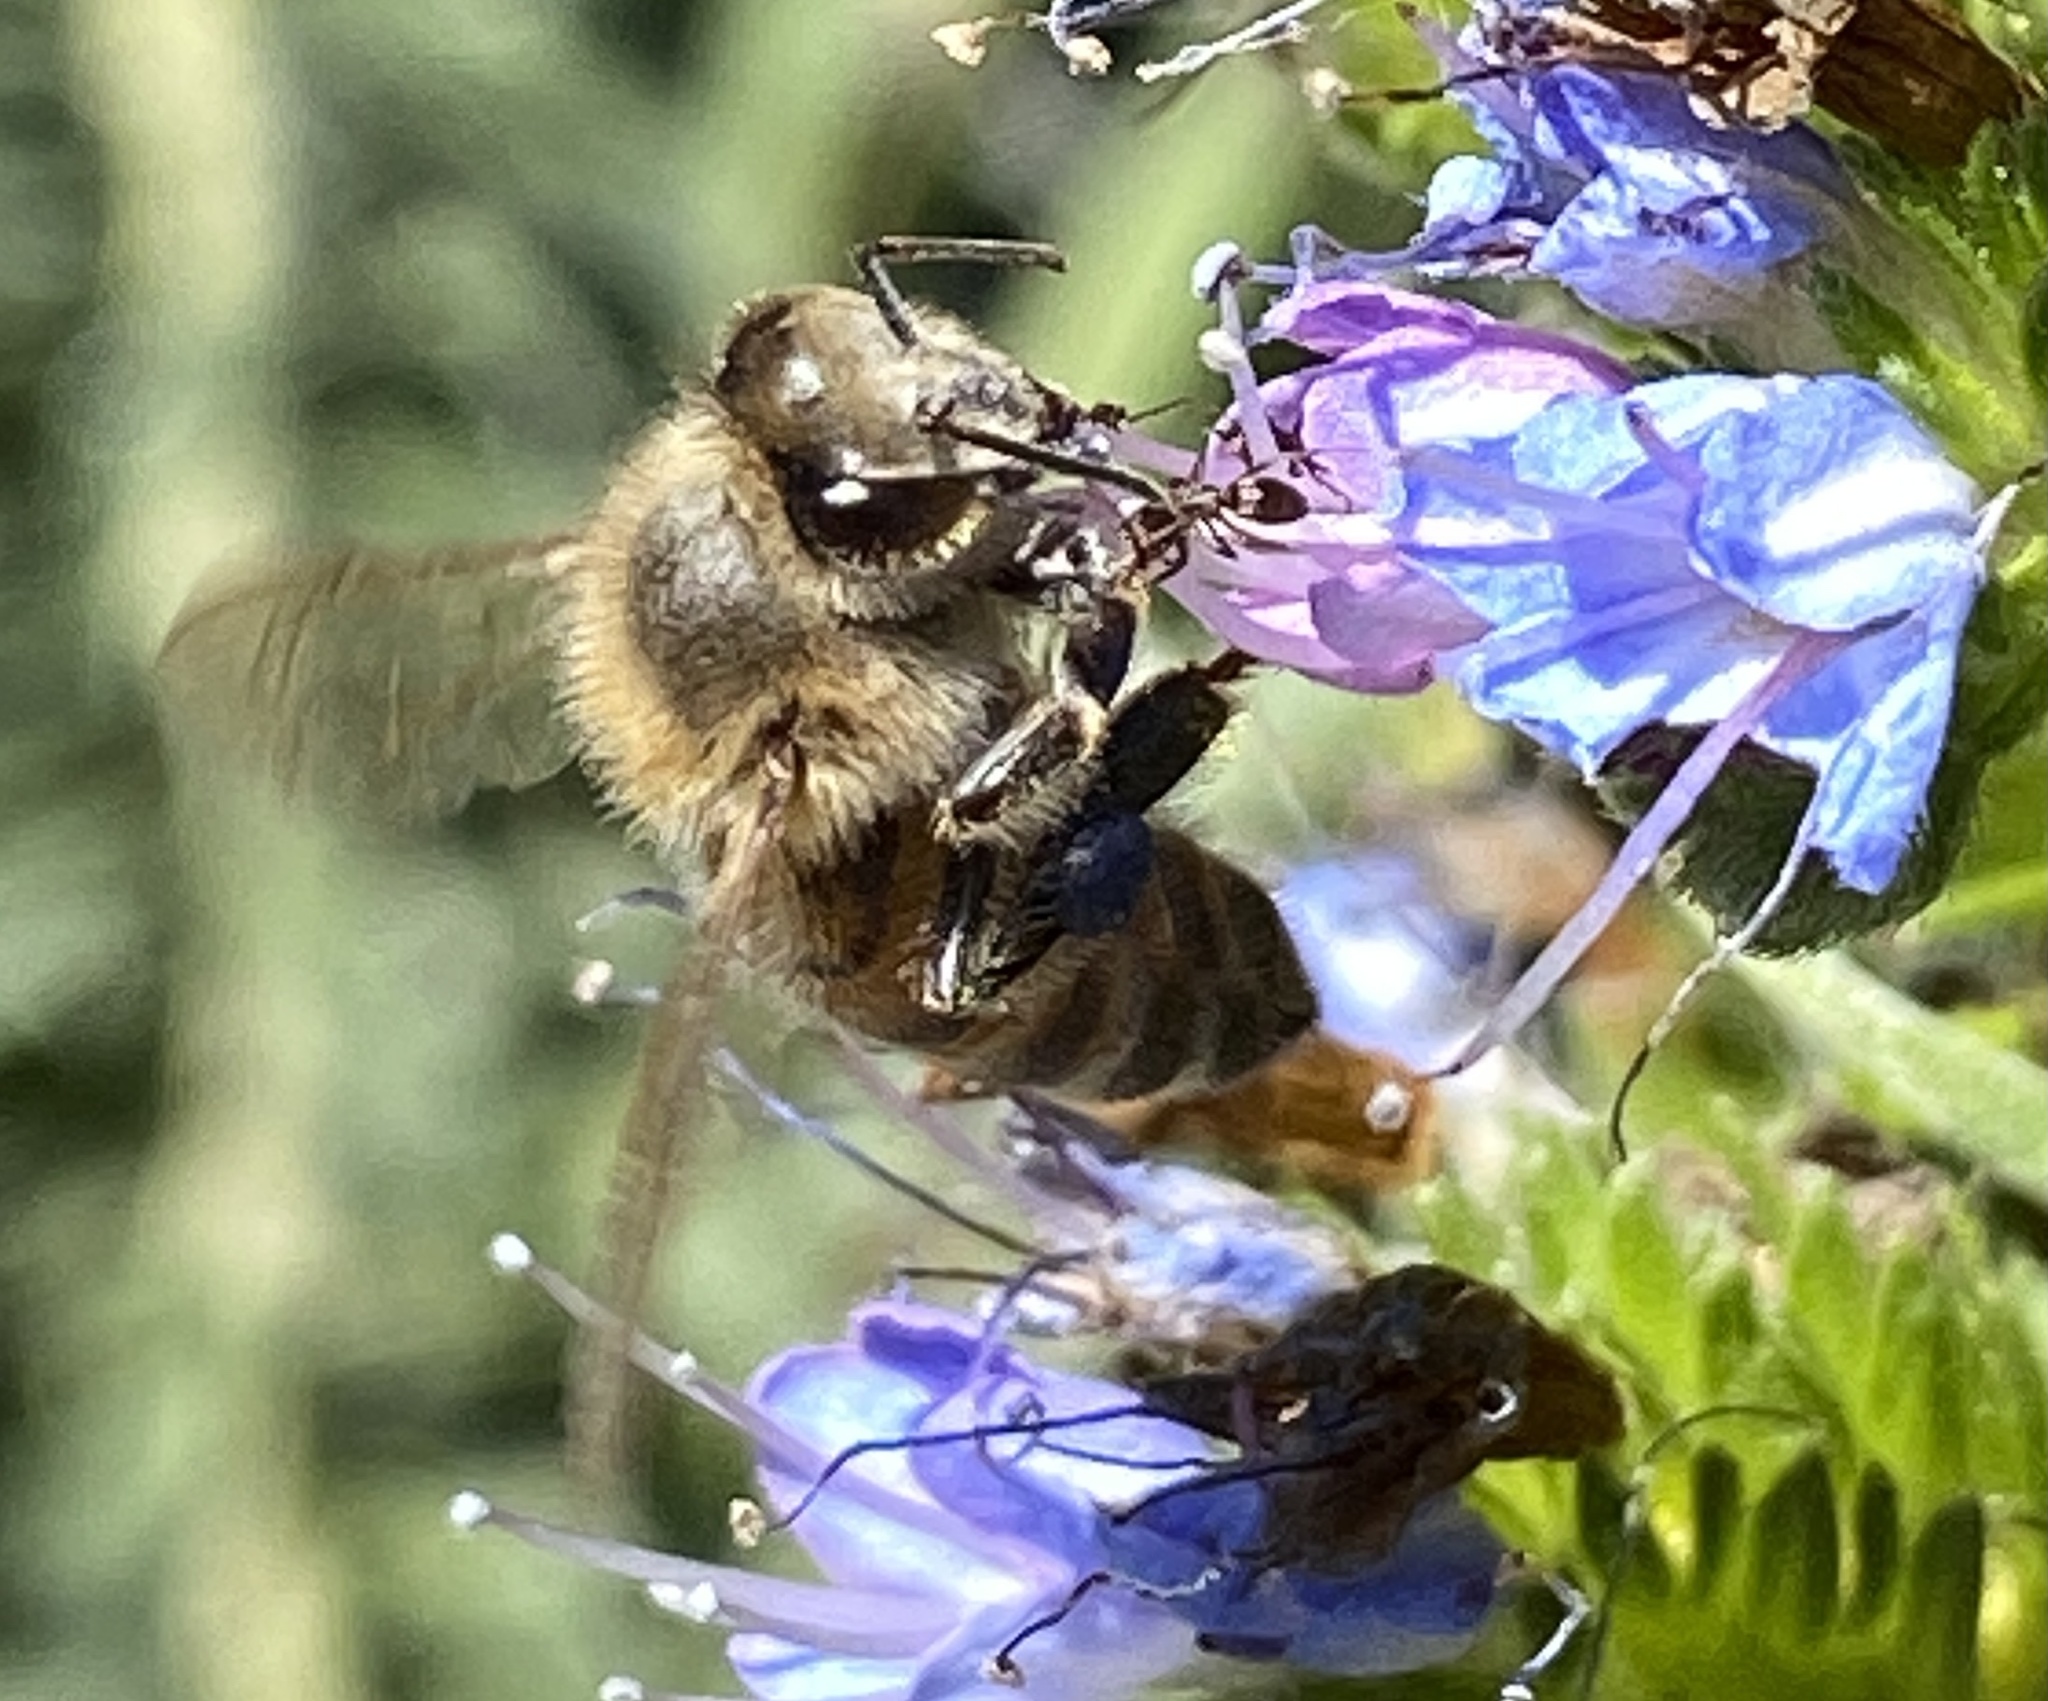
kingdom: Animalia
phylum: Arthropoda
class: Insecta
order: Hymenoptera
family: Apidae
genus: Apis
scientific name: Apis mellifera
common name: Honey bee
